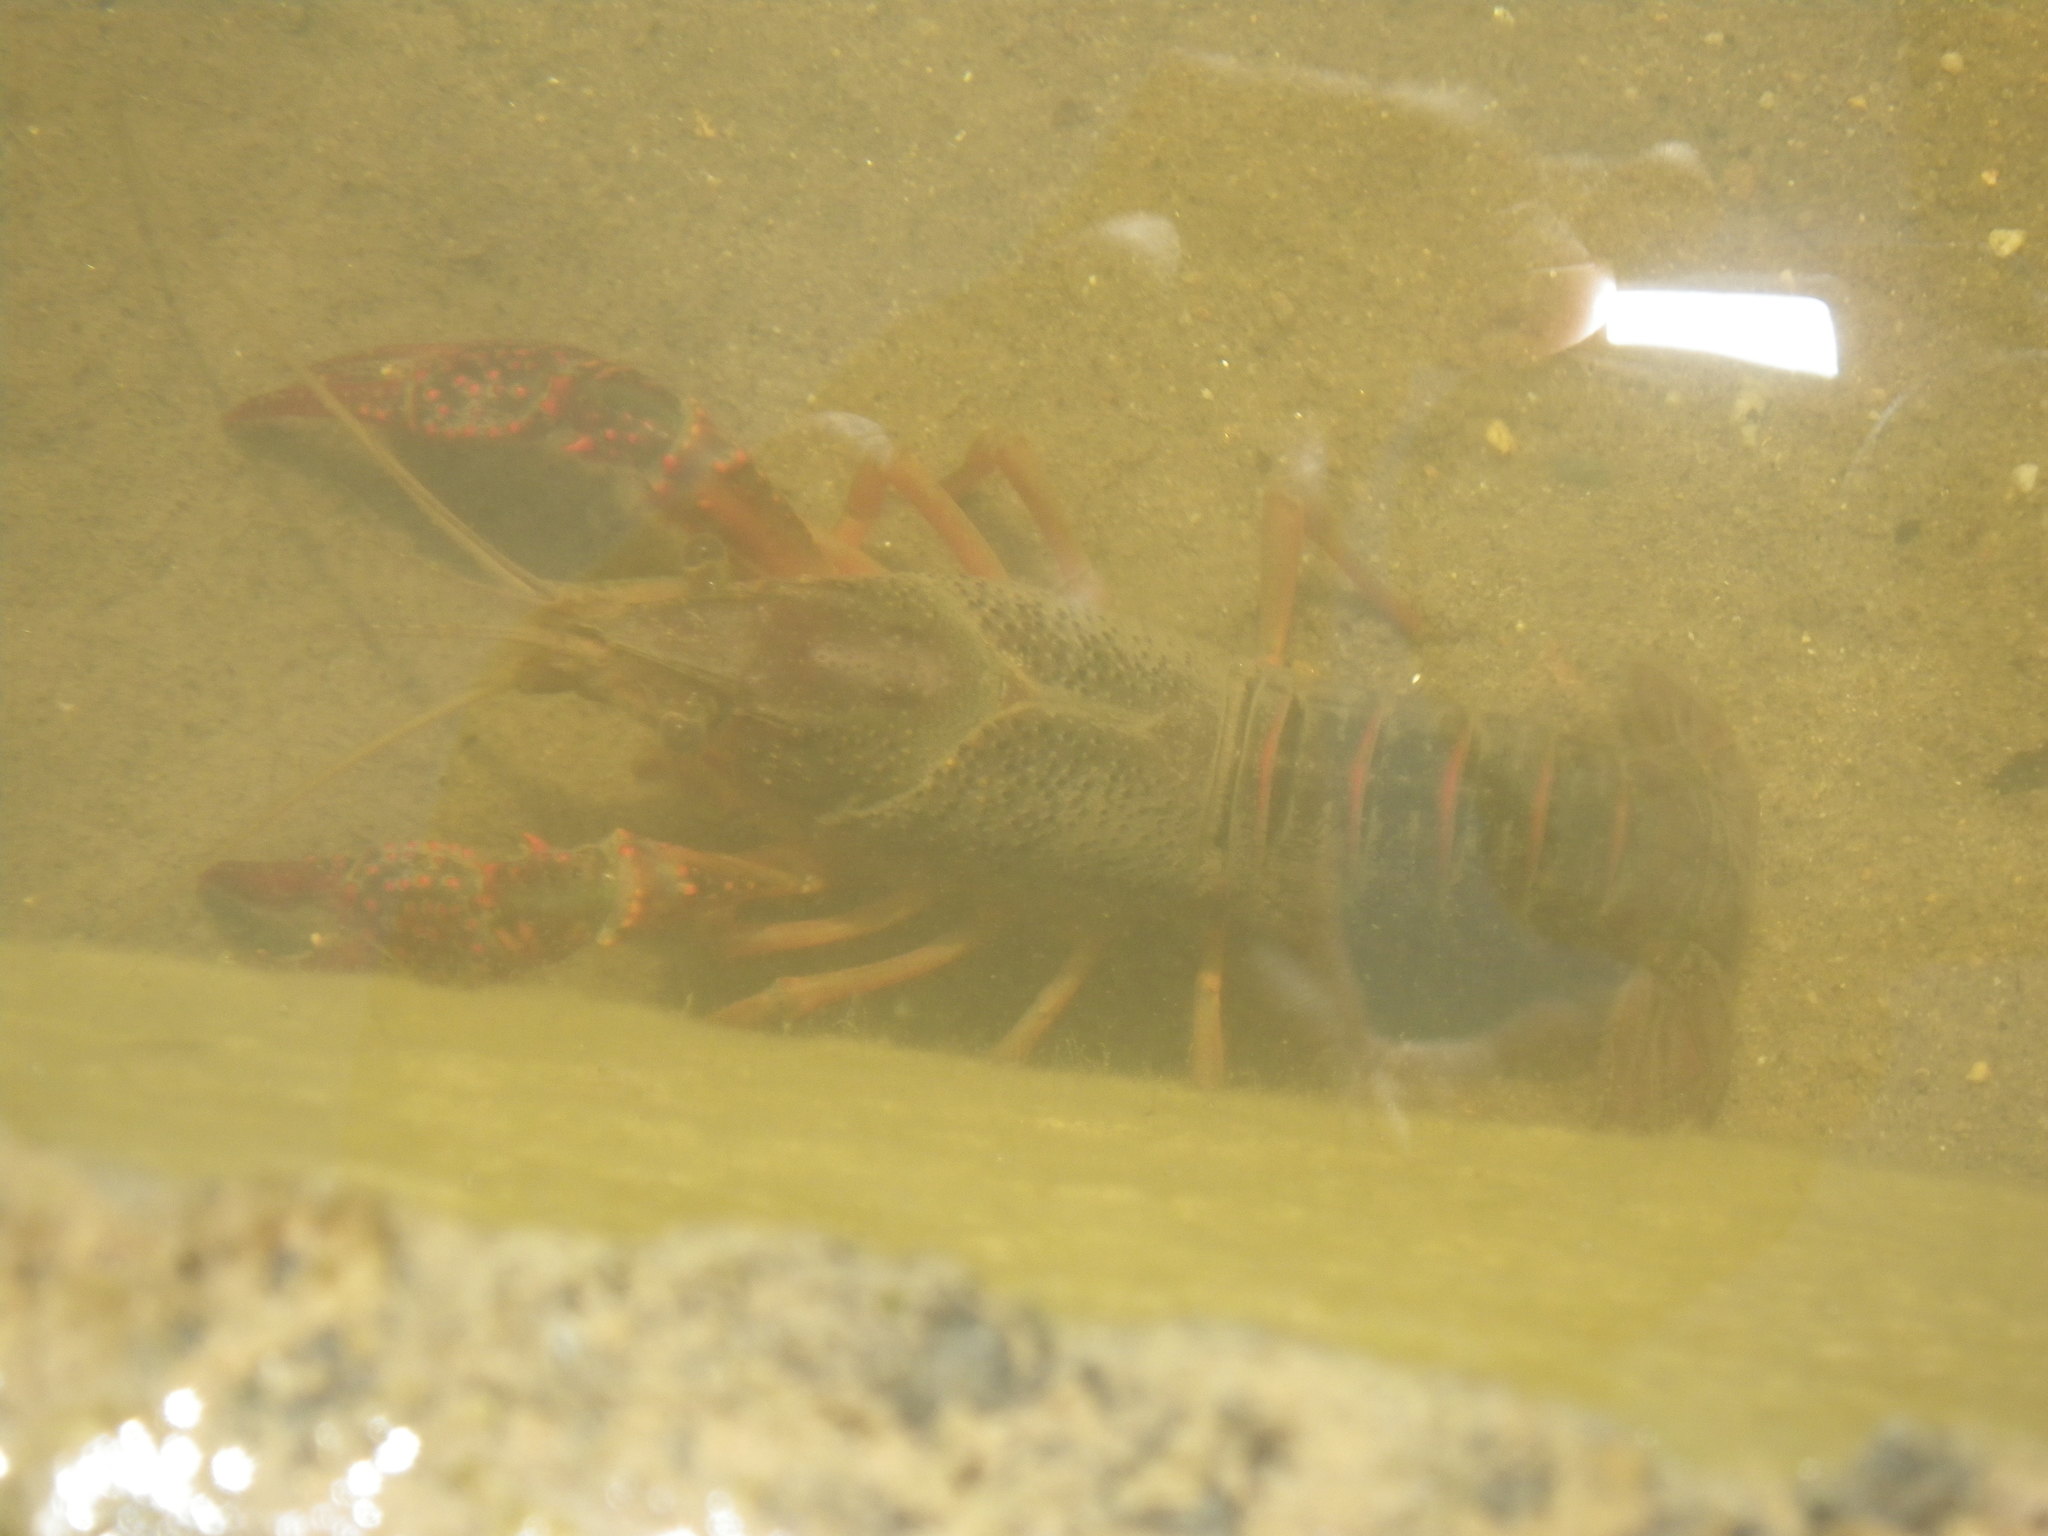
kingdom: Animalia
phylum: Arthropoda
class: Malacostraca
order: Decapoda
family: Cambaridae
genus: Procambarus
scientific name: Procambarus clarkii
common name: Red swamp crayfish
